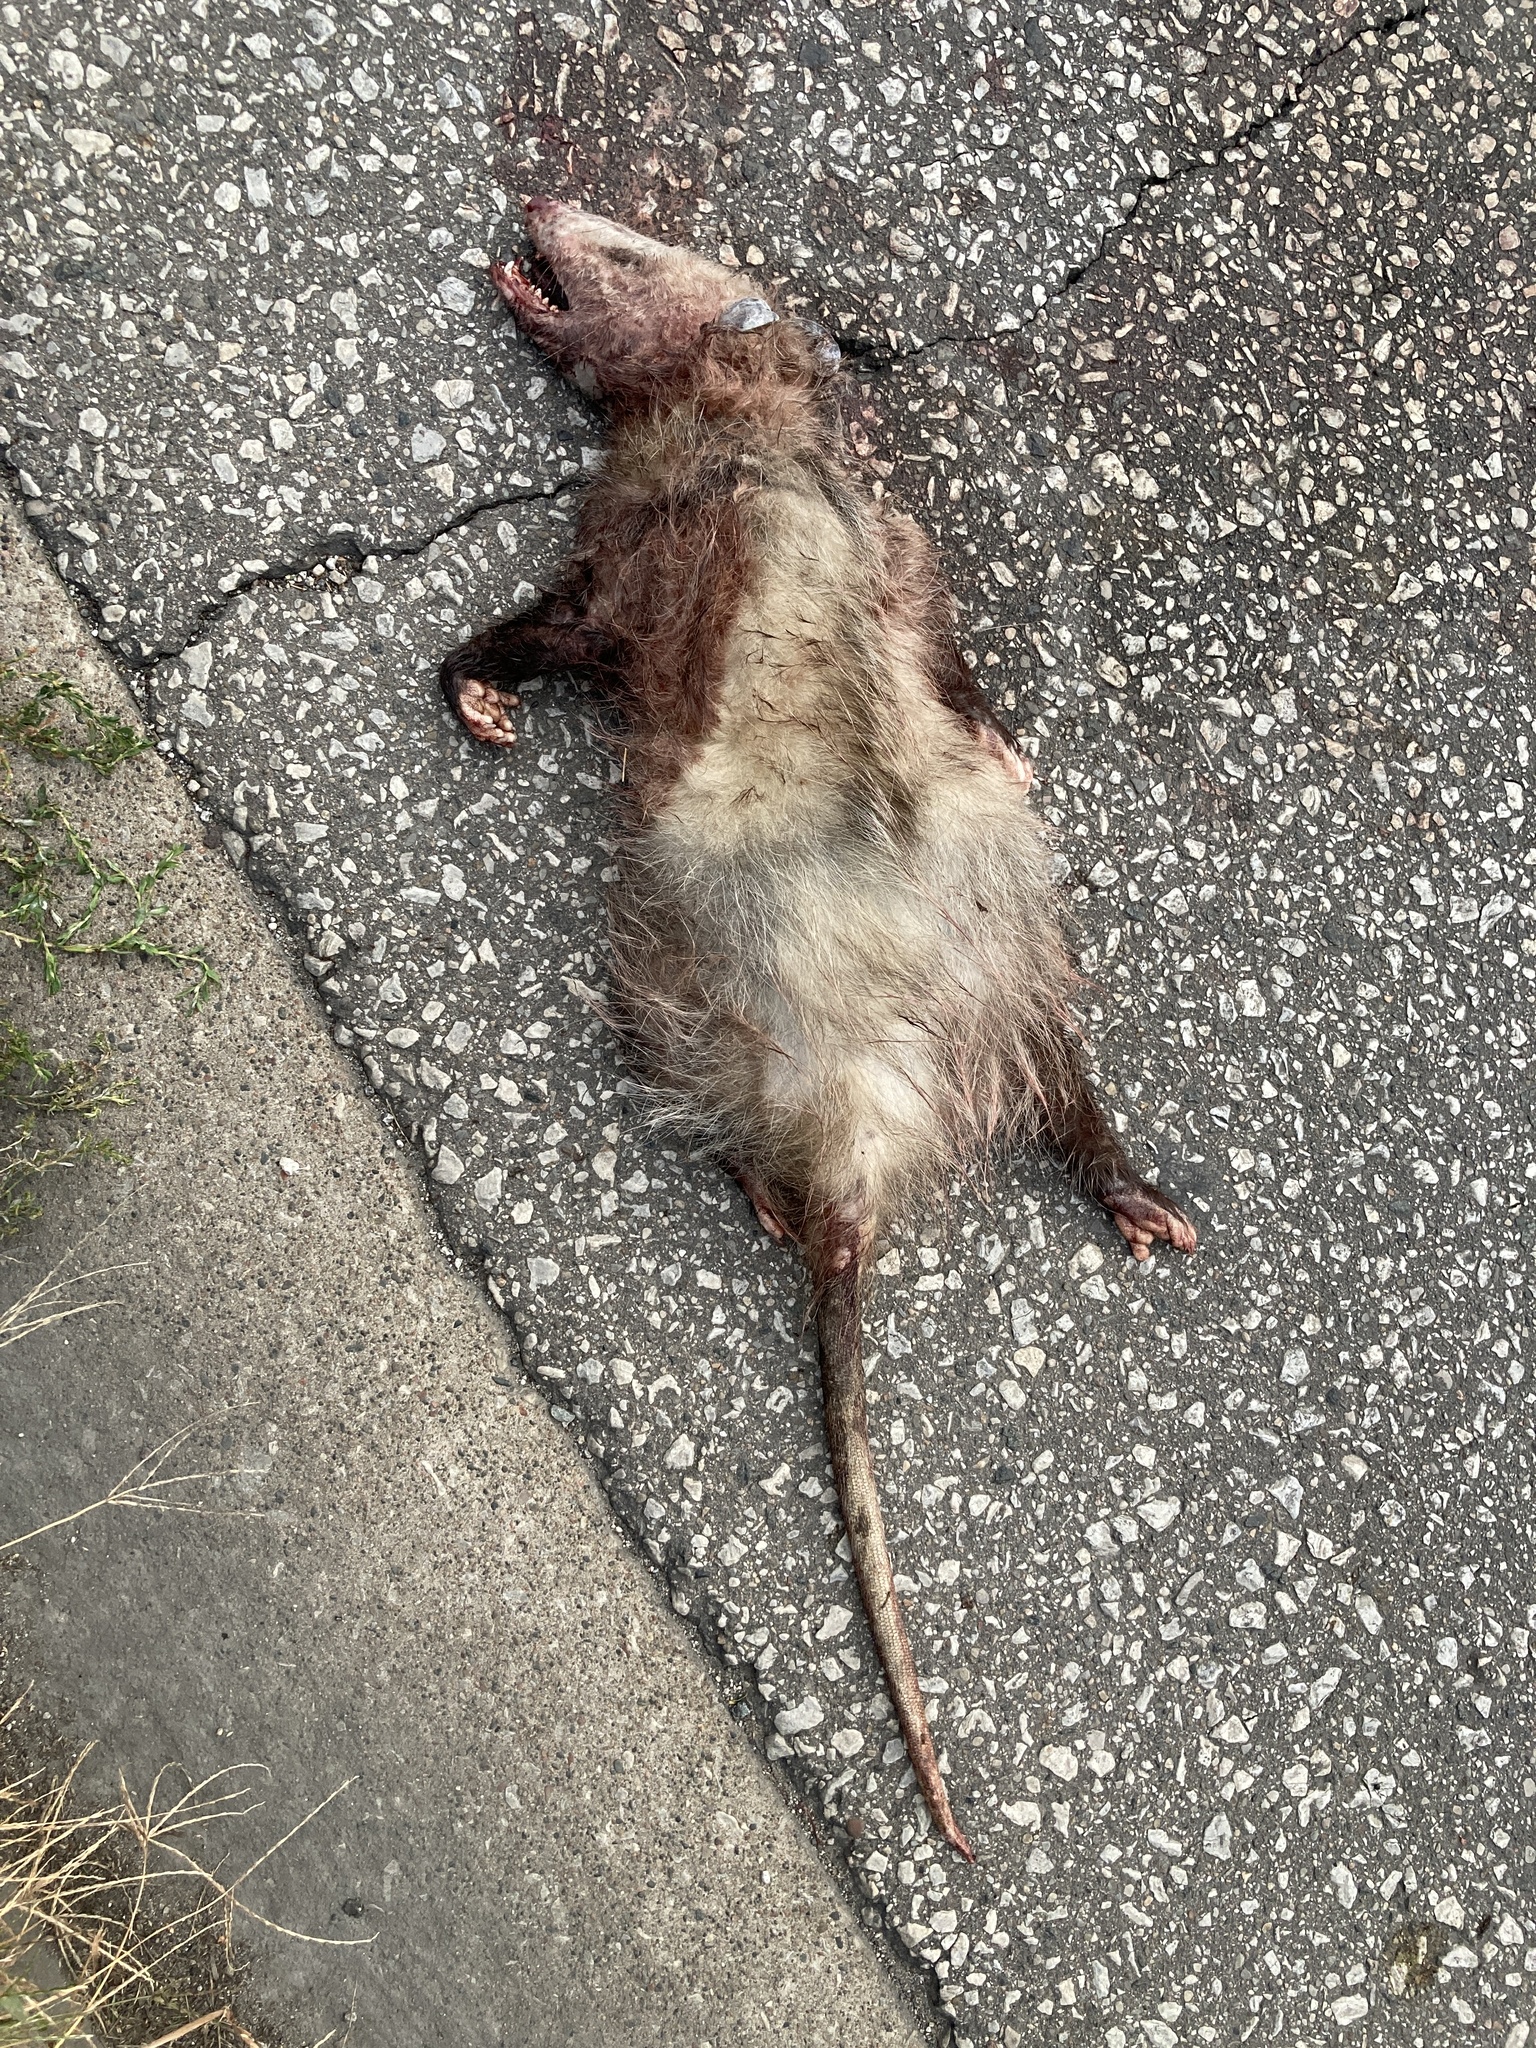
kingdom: Animalia
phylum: Chordata
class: Mammalia
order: Didelphimorphia
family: Didelphidae
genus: Didelphis
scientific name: Didelphis virginiana
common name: Virginia opossum
